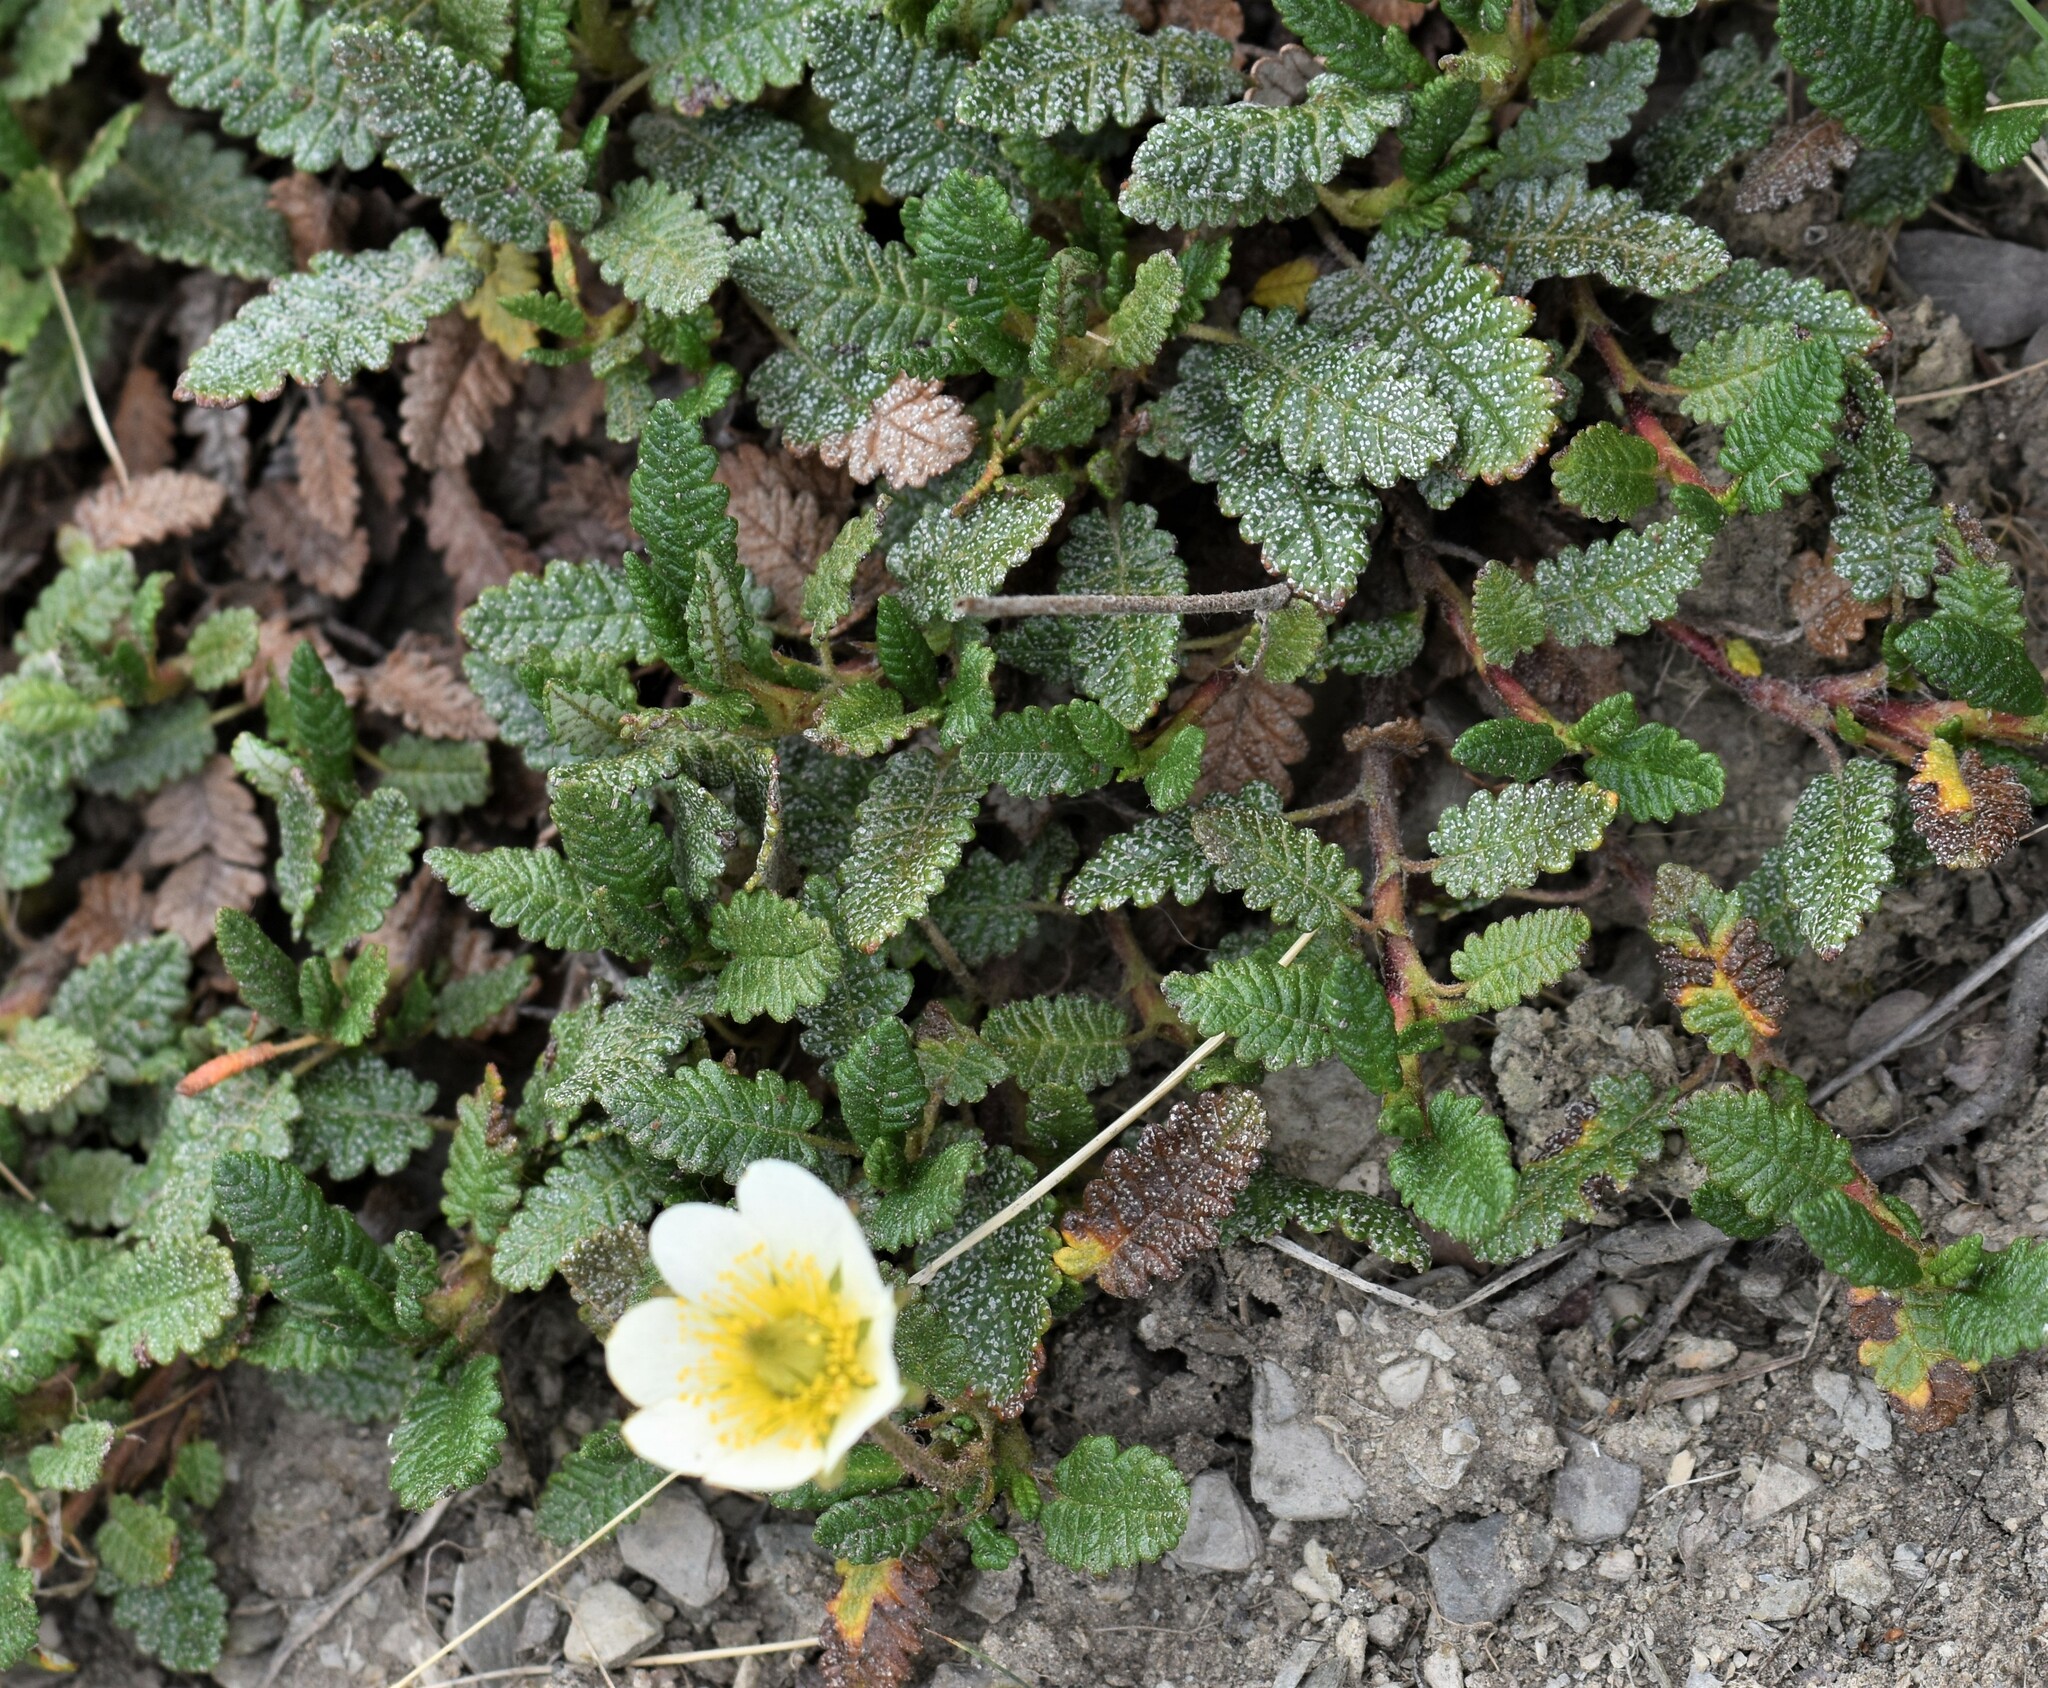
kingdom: Plantae
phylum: Tracheophyta
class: Magnoliopsida
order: Rosales
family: Rosaceae
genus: Dryas
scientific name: Dryas octopetala
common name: Eight-petal mountain-avens
